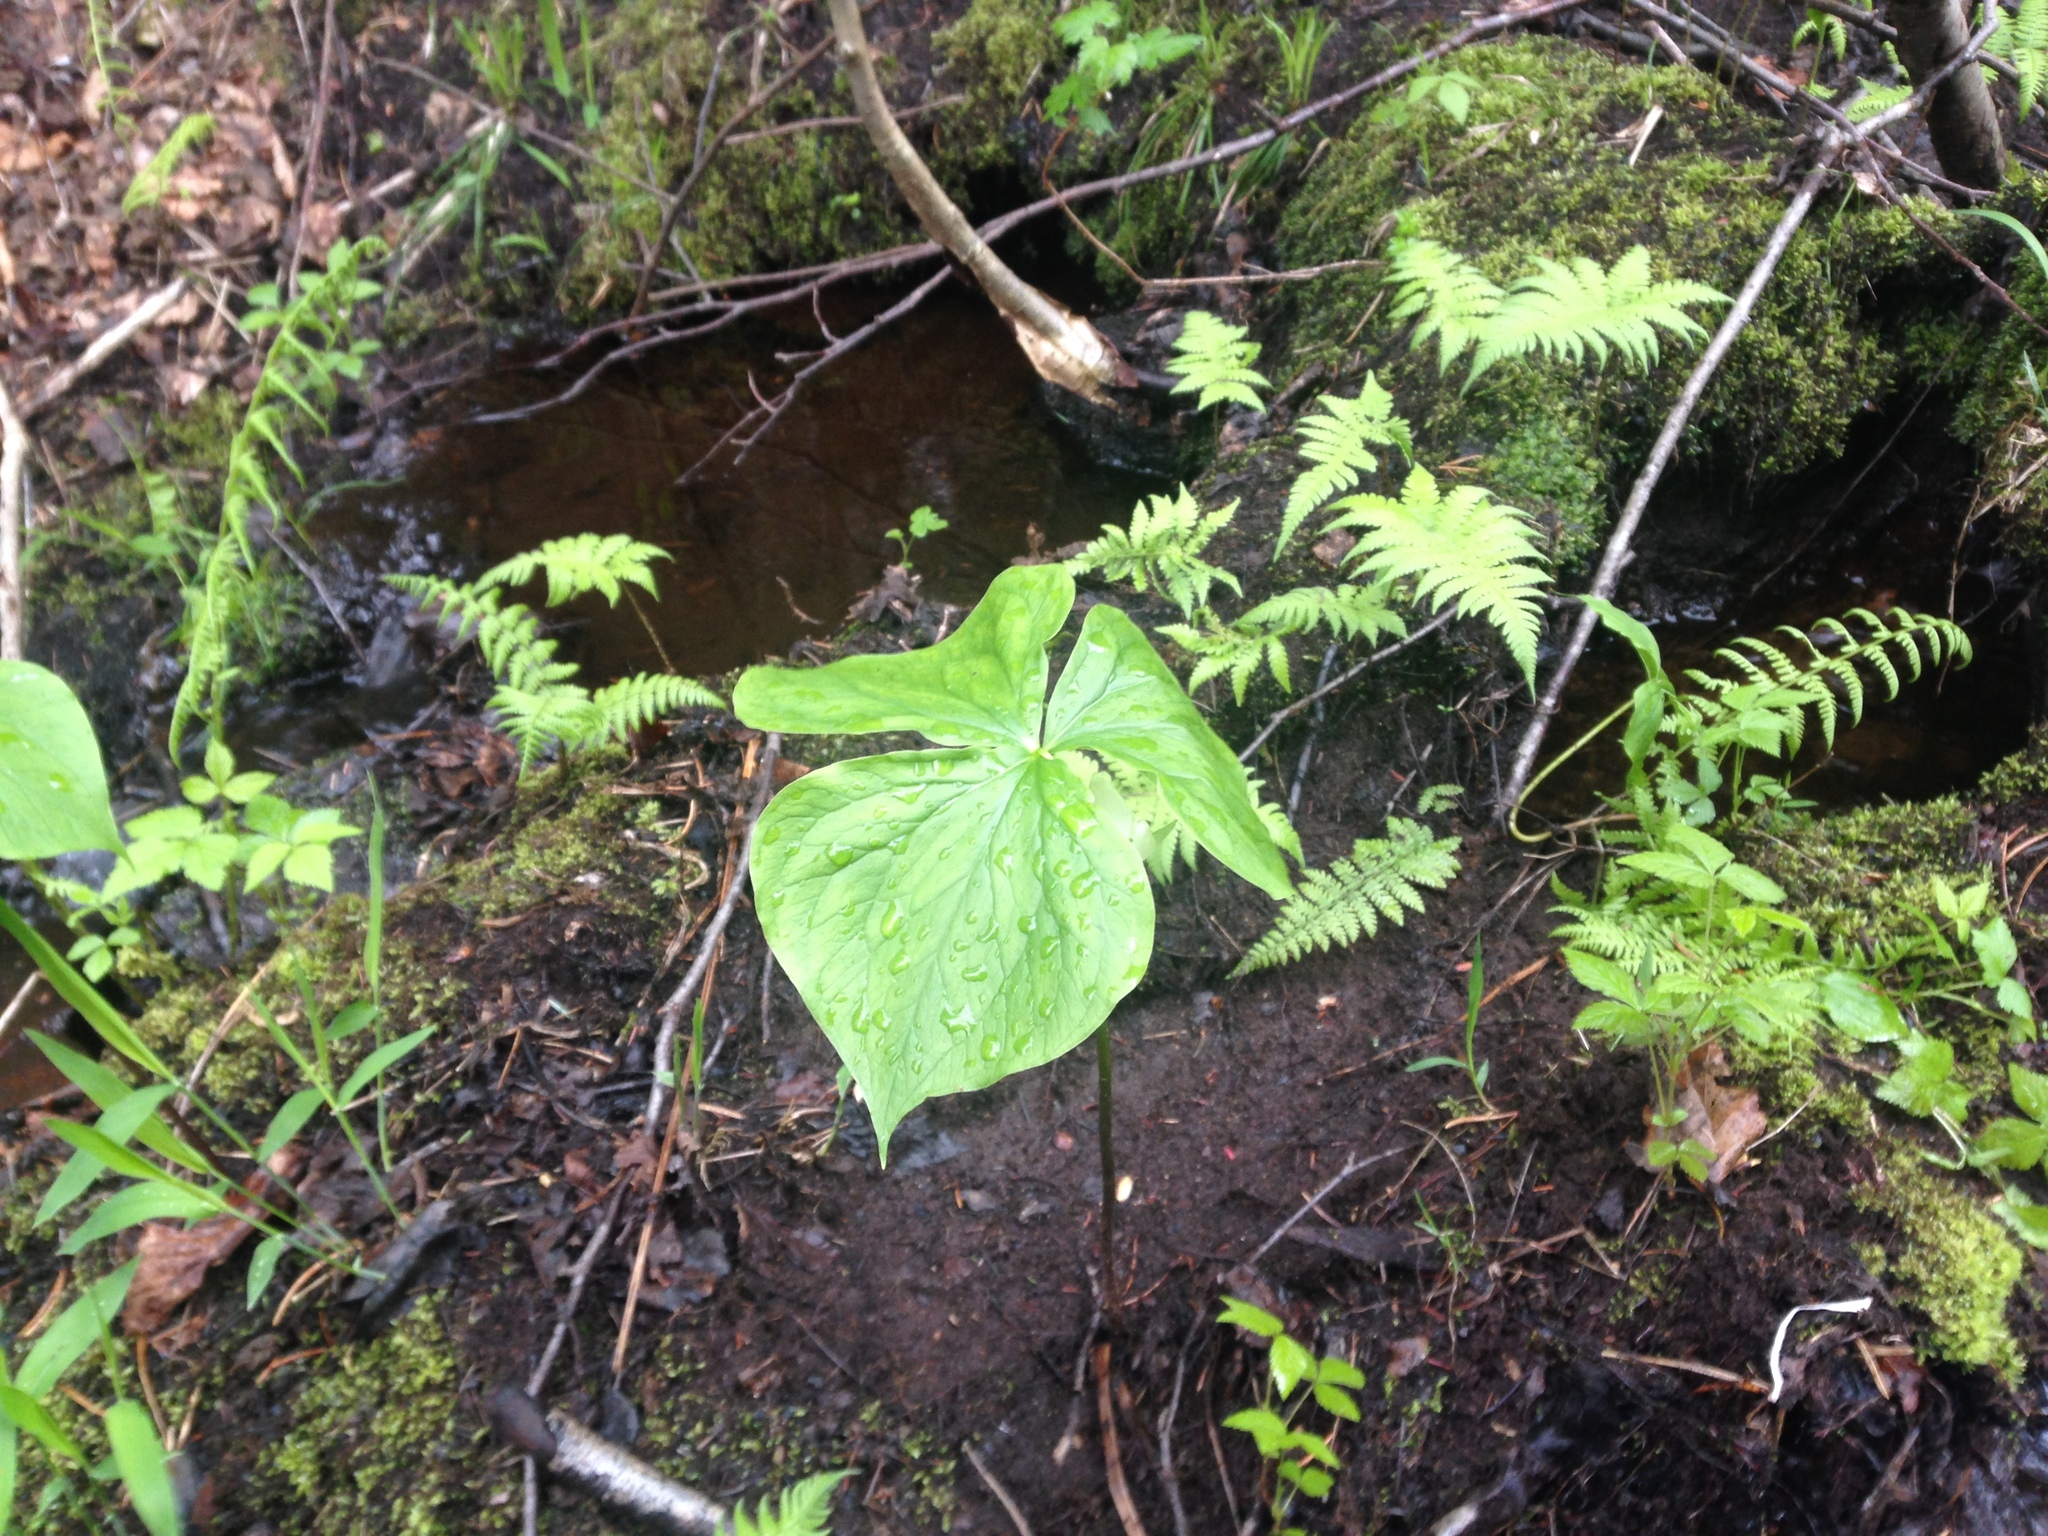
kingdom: Plantae
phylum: Tracheophyta
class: Liliopsida
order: Liliales
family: Melanthiaceae
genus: Trillium
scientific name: Trillium cernuum
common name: Nodding trillium
